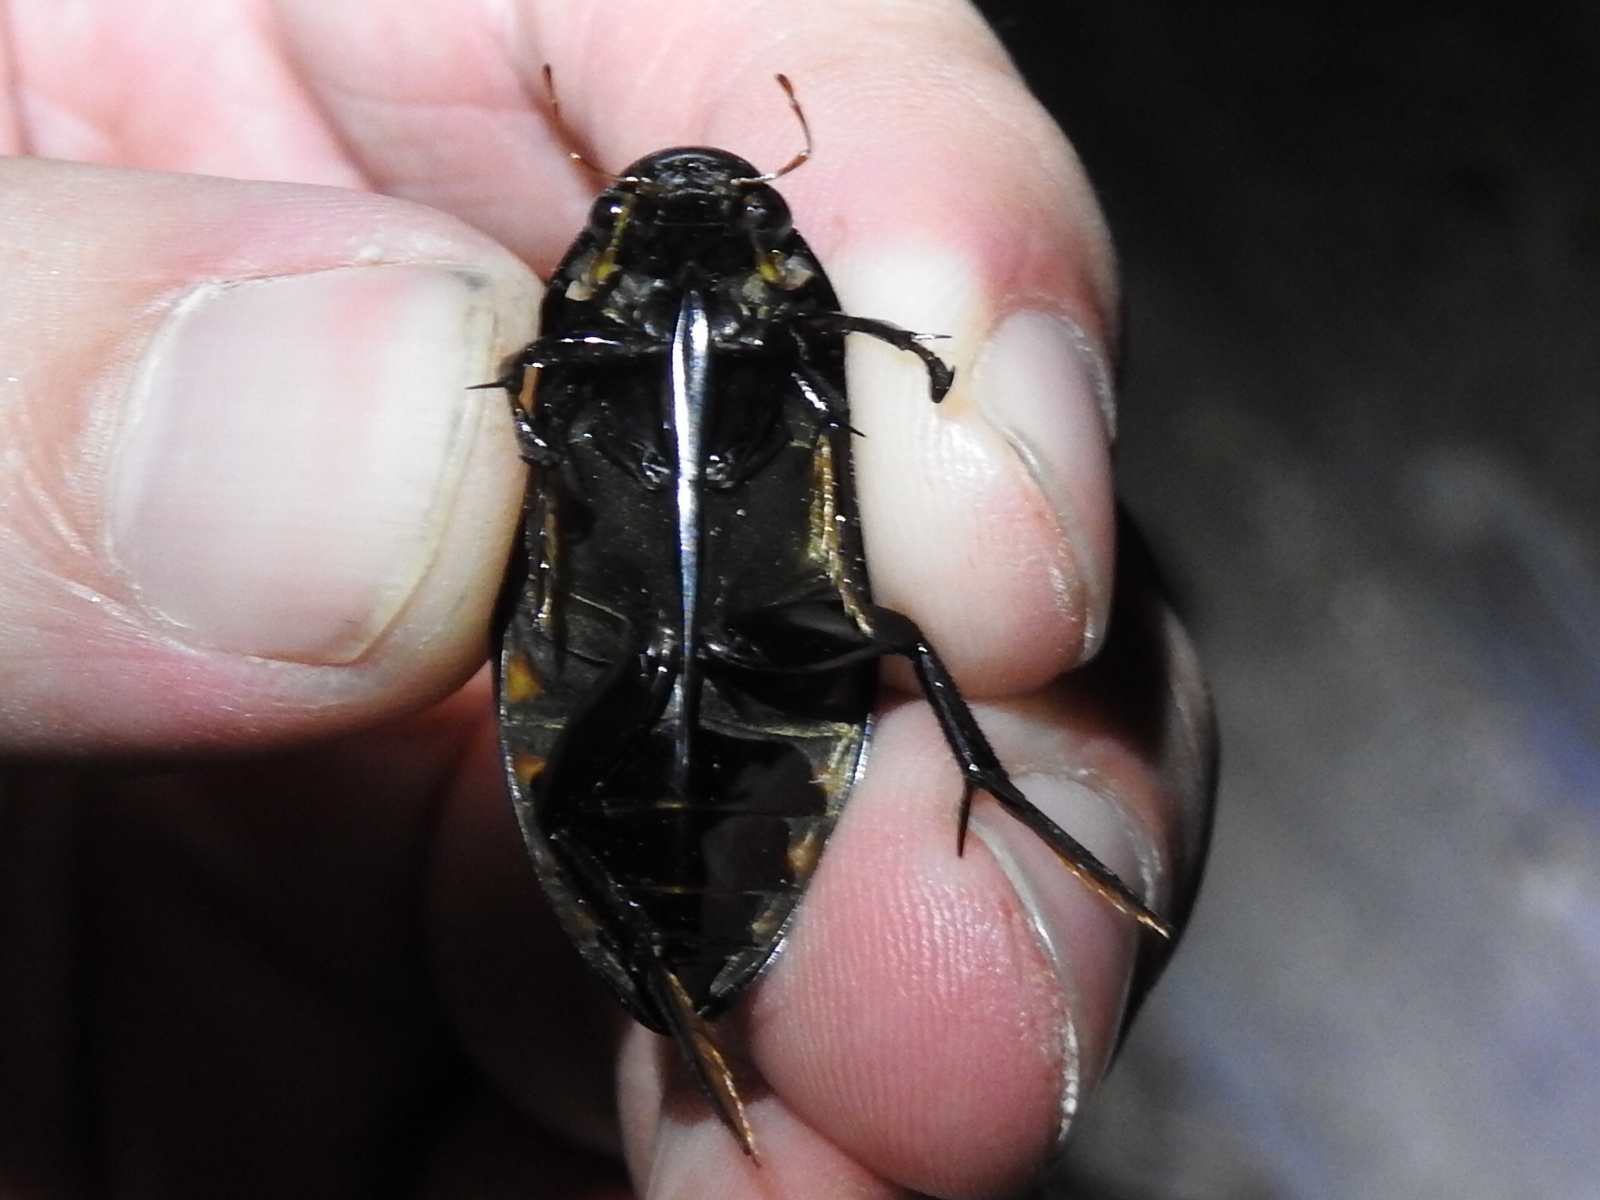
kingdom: Animalia
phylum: Arthropoda
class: Insecta
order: Coleoptera
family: Hydrophilidae
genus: Hydrophilus
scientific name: Hydrophilus triangularis
